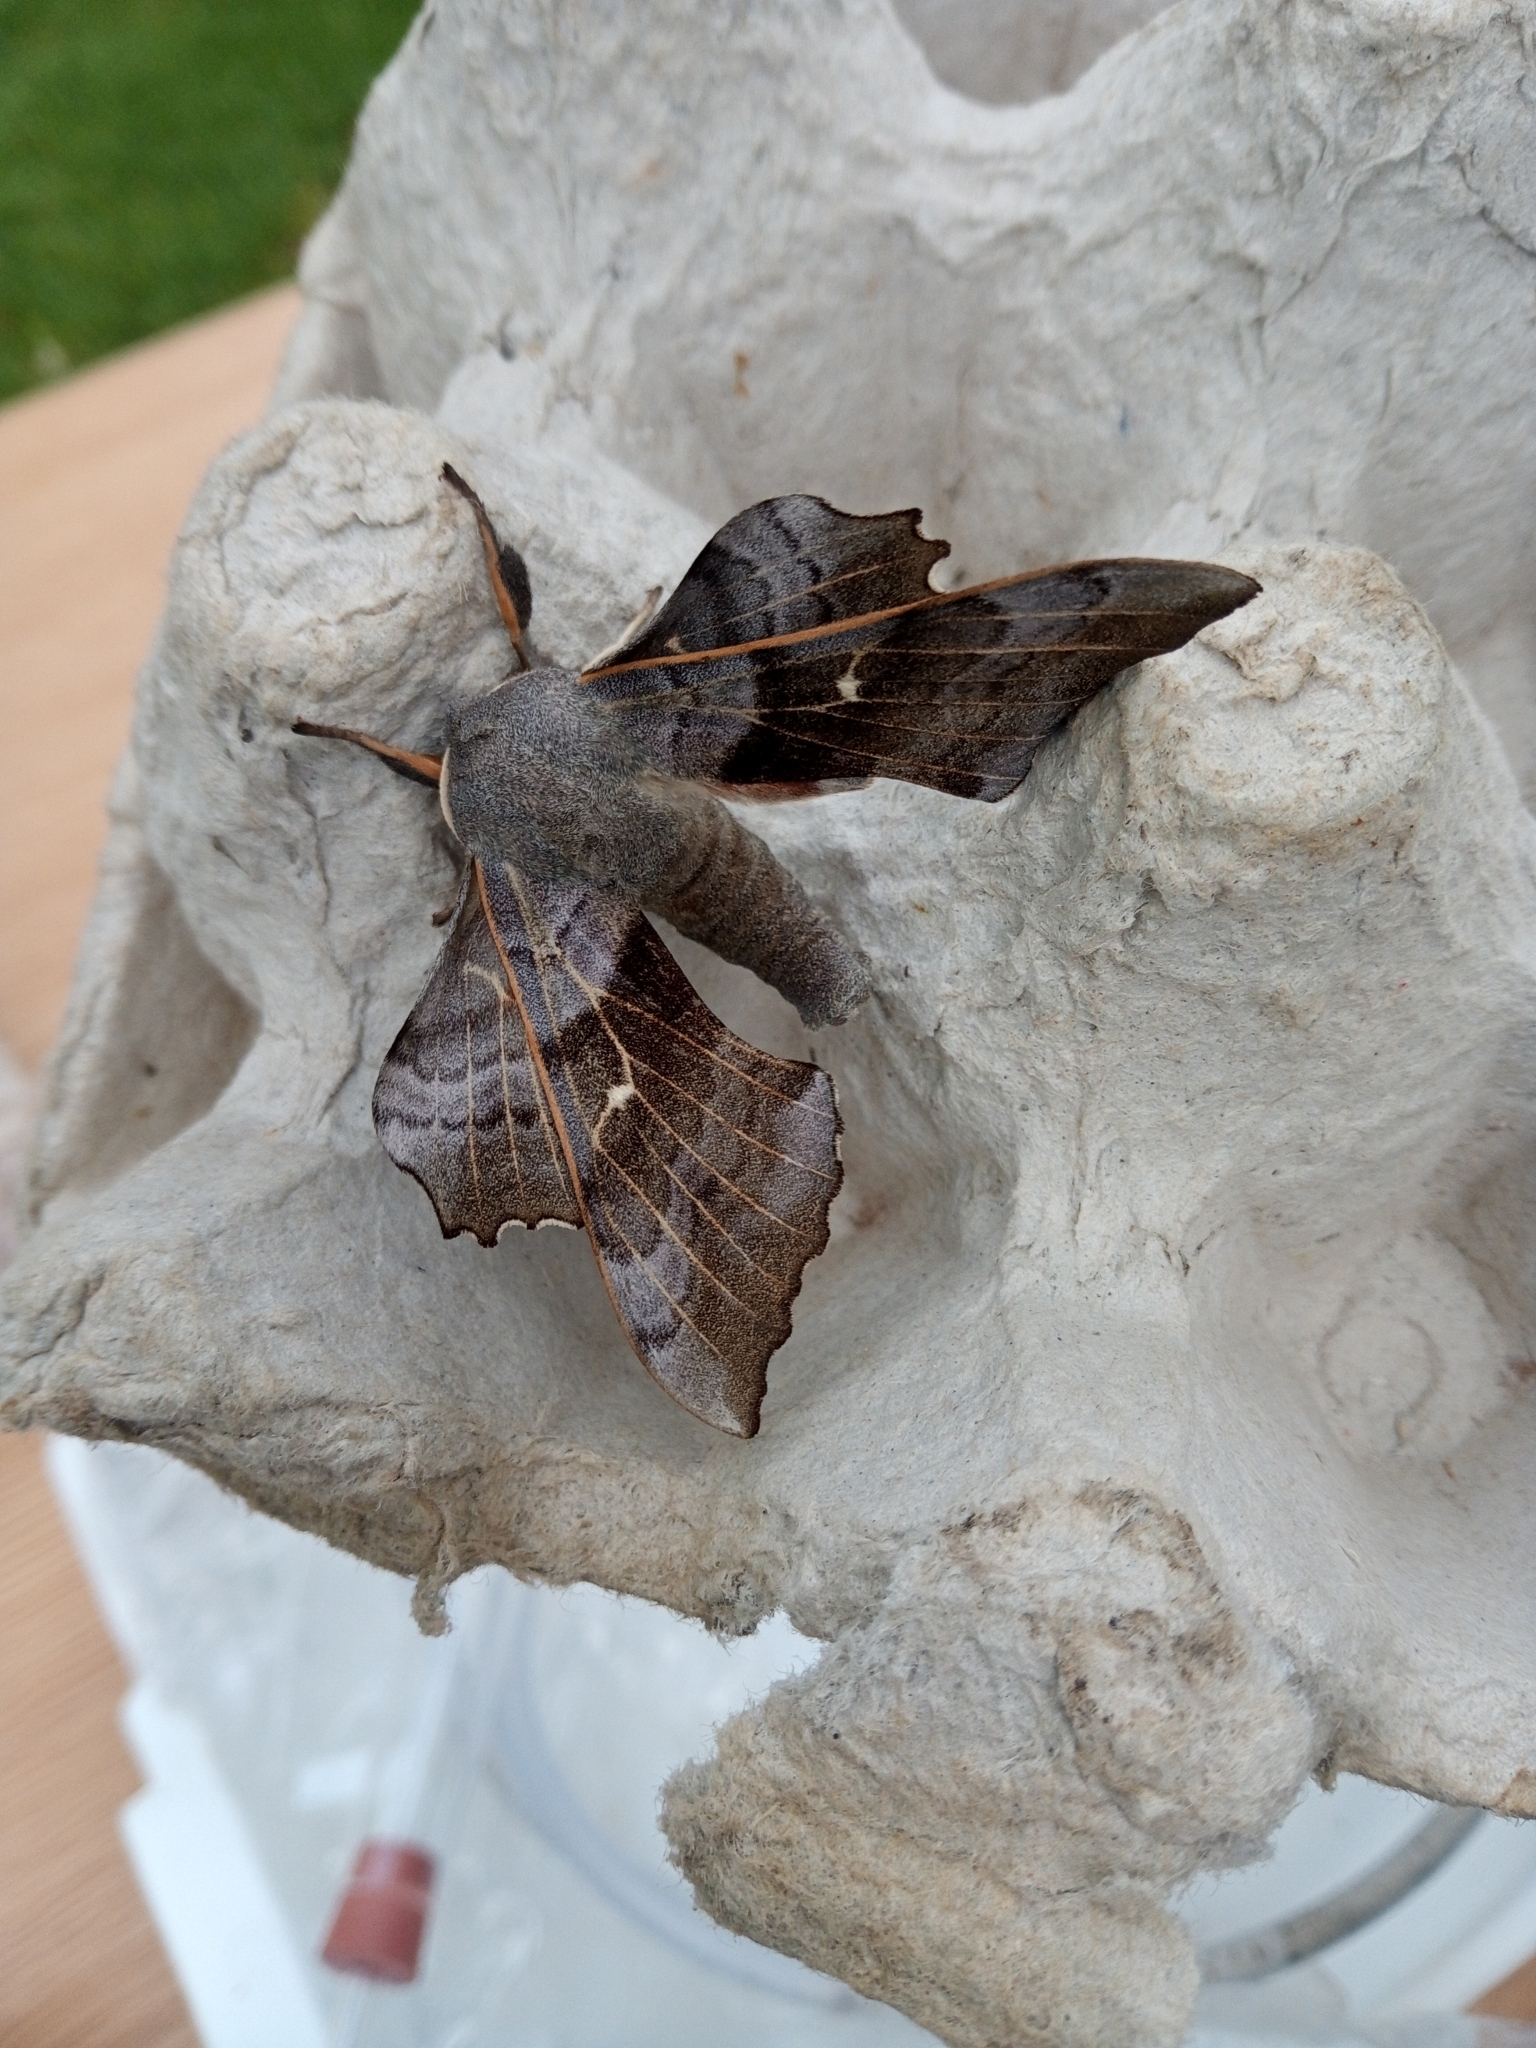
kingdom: Animalia
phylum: Arthropoda
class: Insecta
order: Lepidoptera
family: Sphingidae
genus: Laothoe
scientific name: Laothoe populi
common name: Poplar hawk-moth
